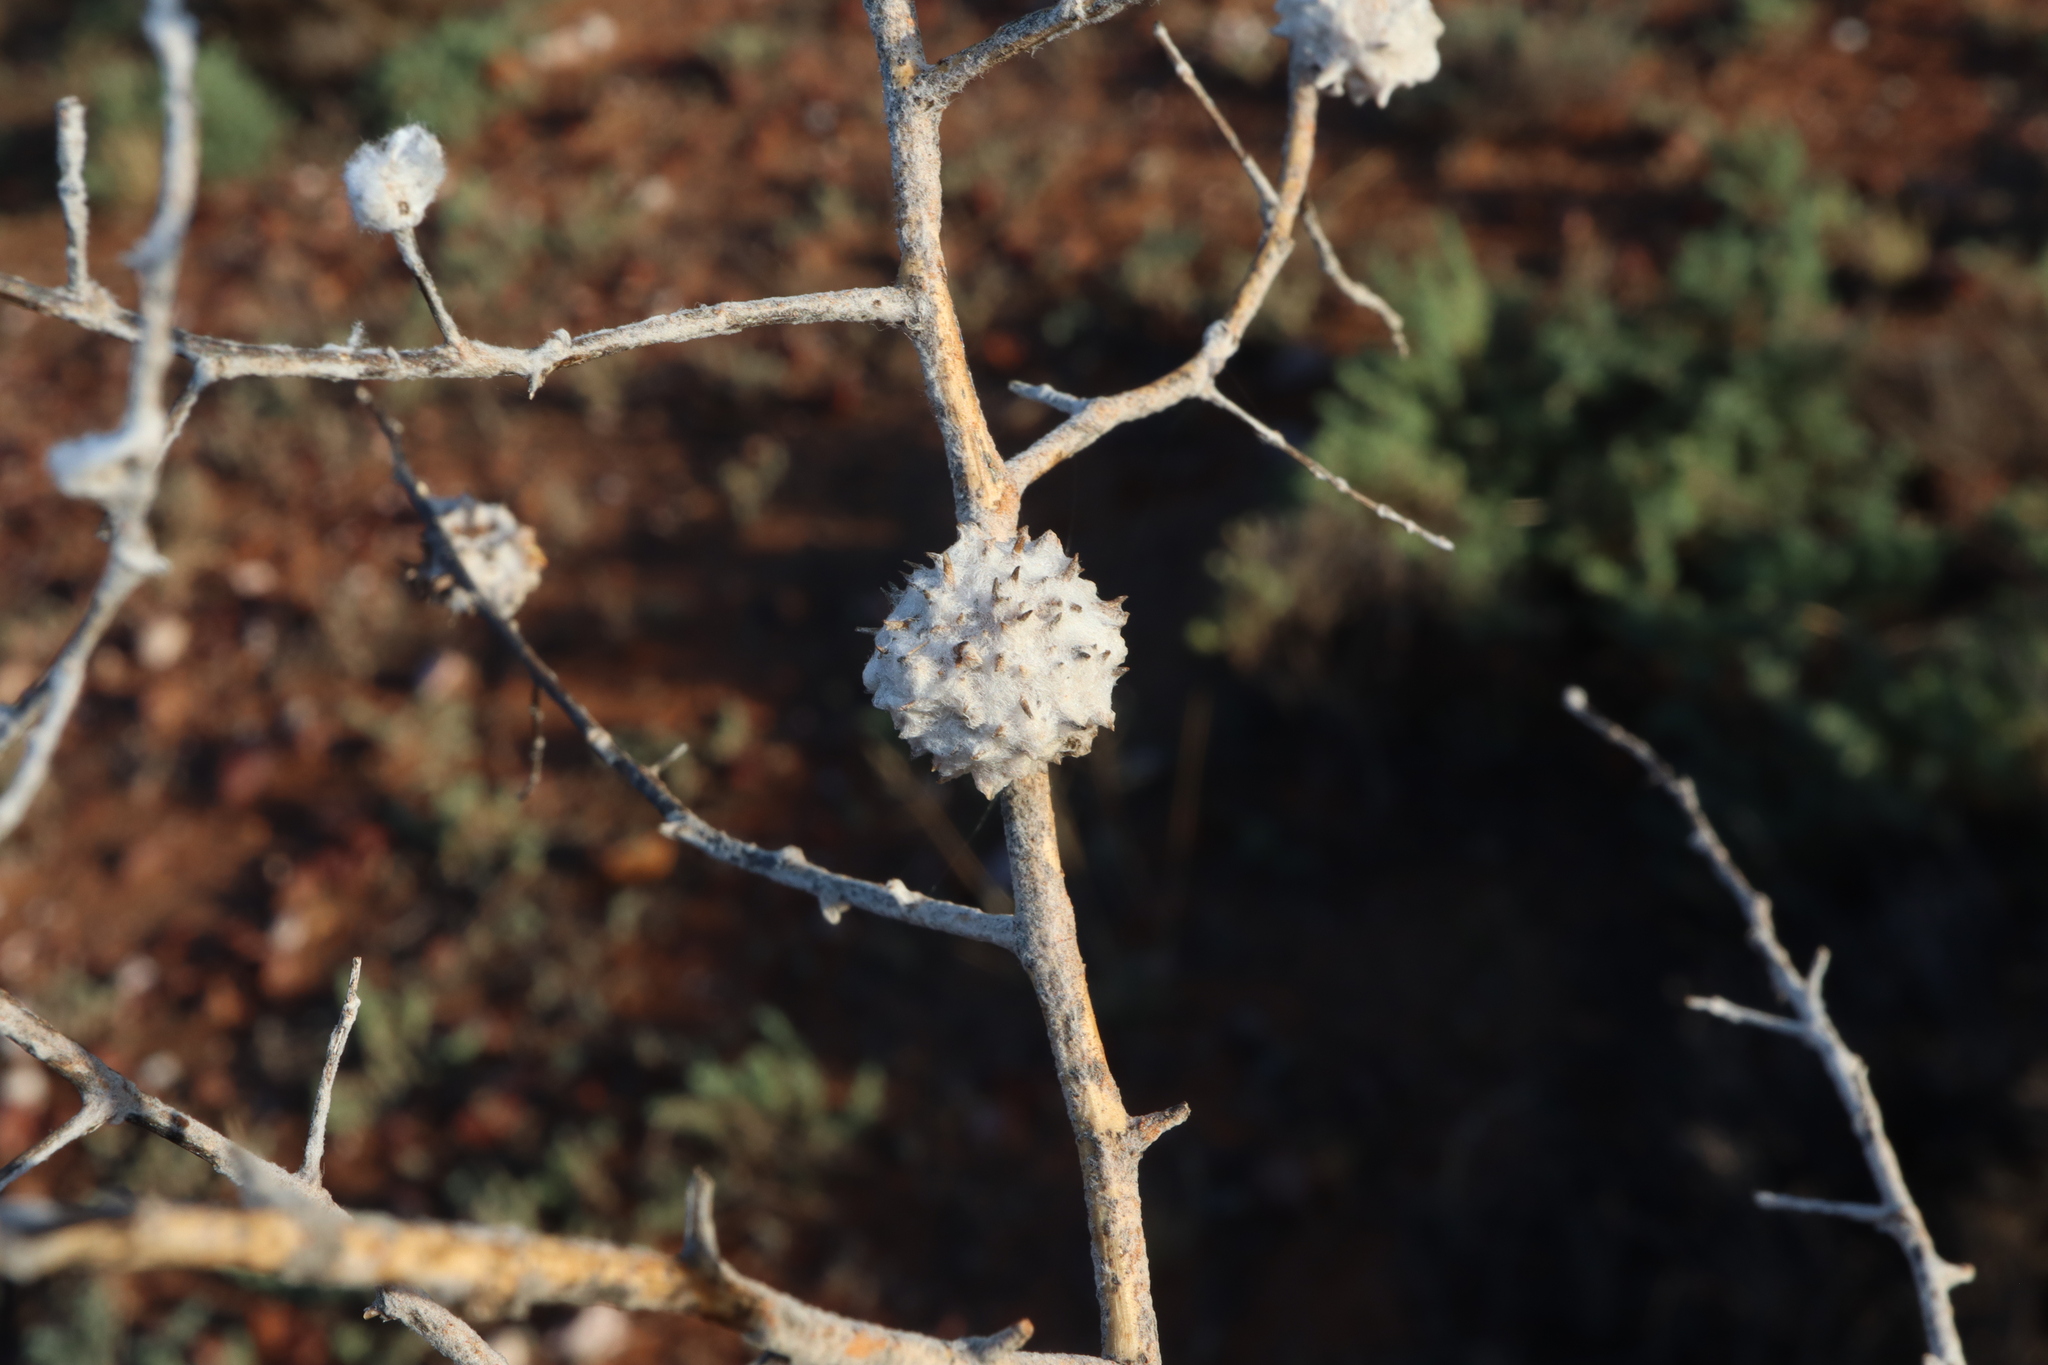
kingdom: Plantae
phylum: Tracheophyta
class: Magnoliopsida
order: Caryophyllales
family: Amaranthaceae
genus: Dissocarpus
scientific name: Dissocarpus paradoxus
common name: Bur-saltbush
